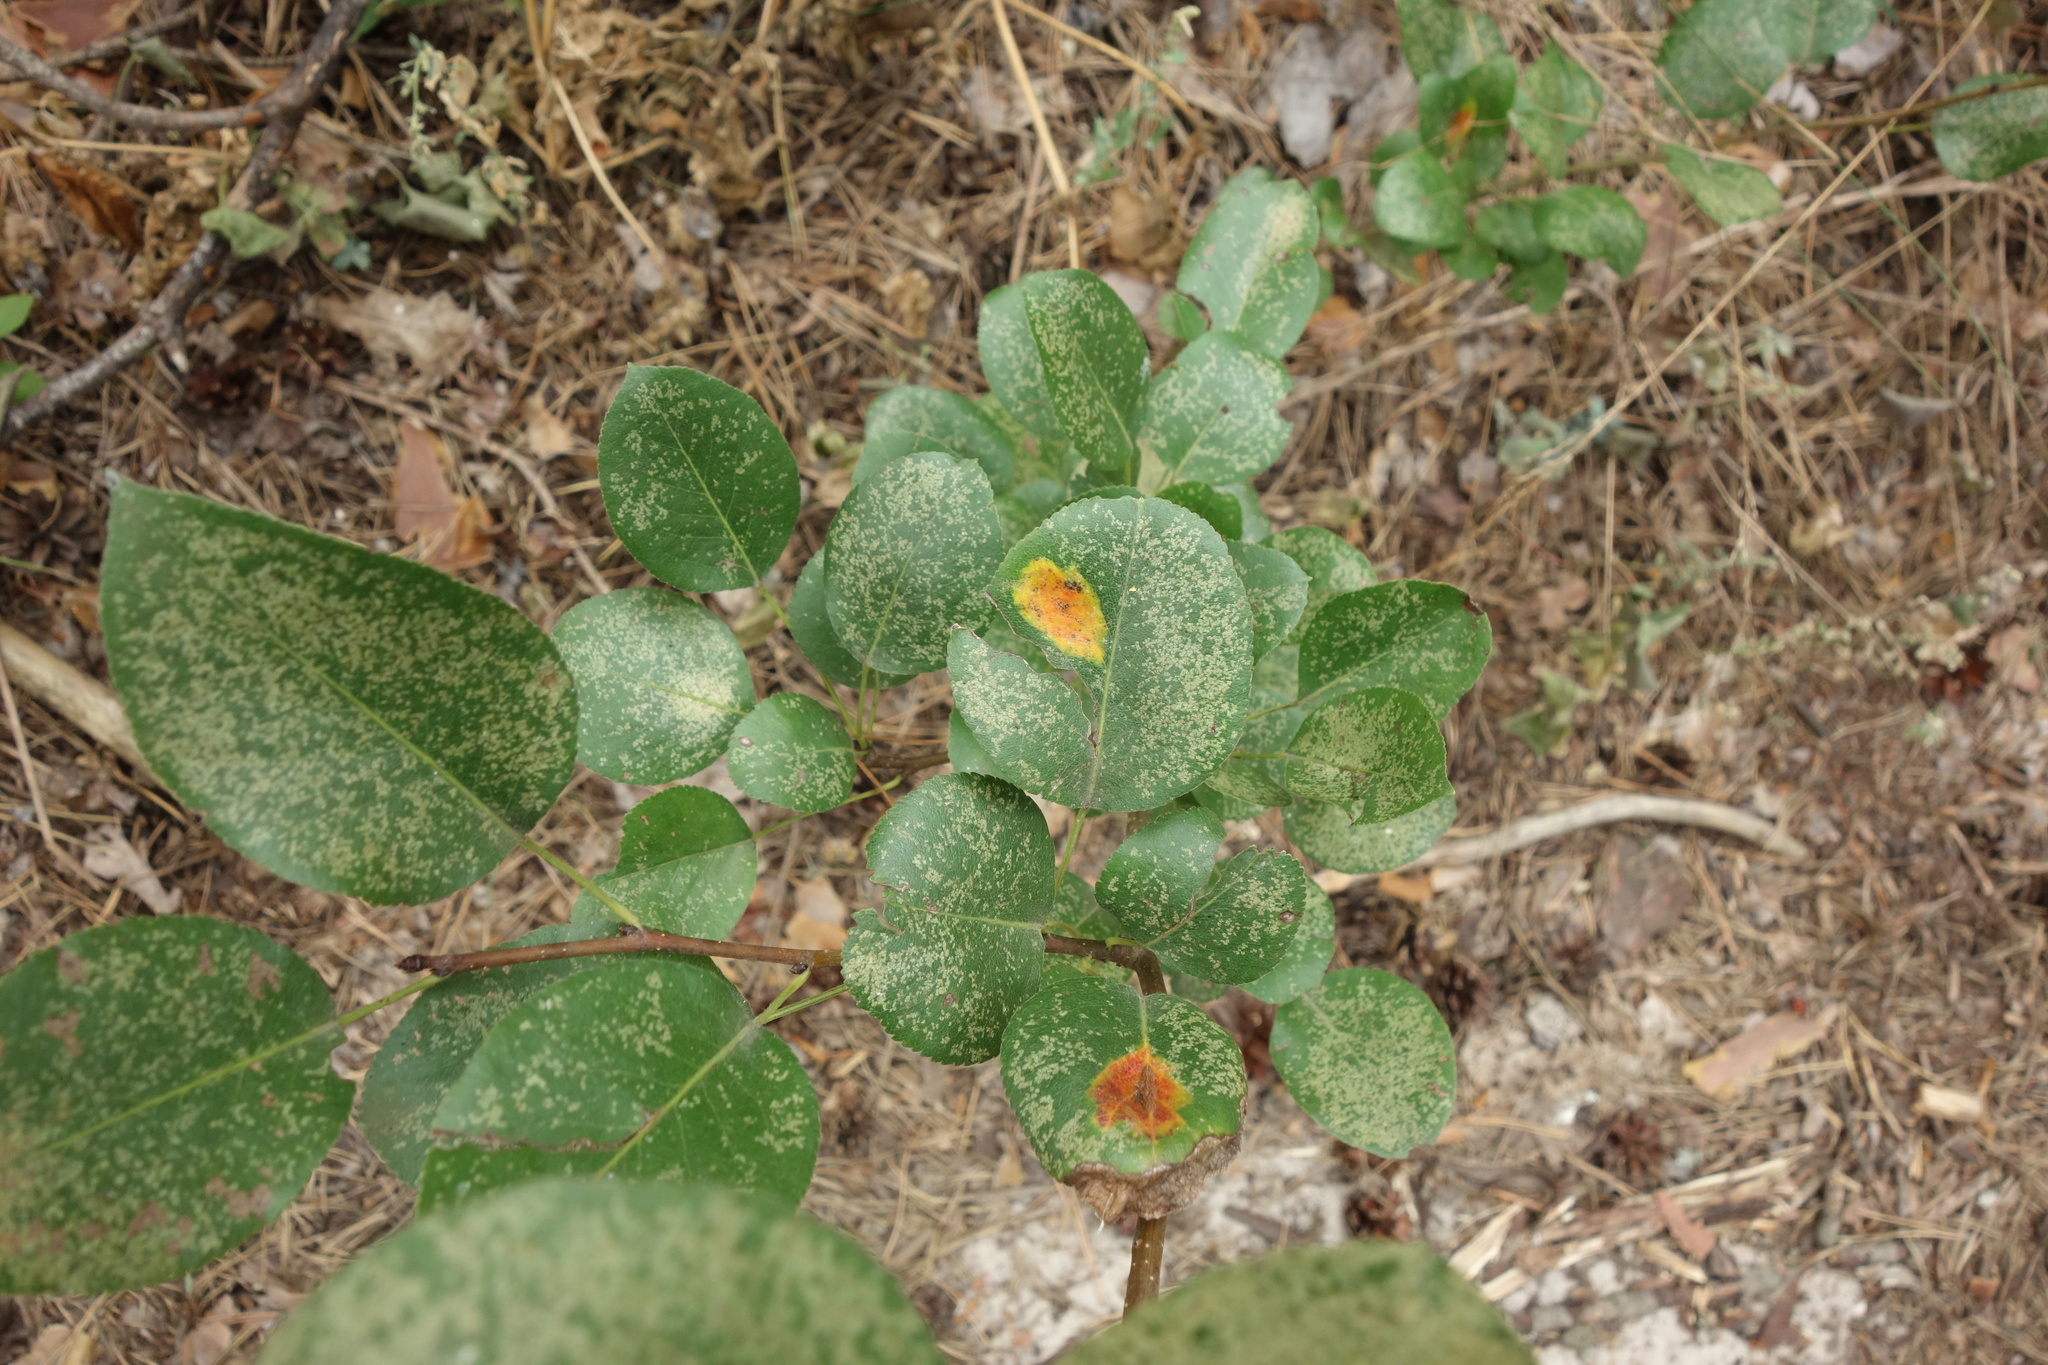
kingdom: Plantae
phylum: Tracheophyta
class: Magnoliopsida
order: Rosales
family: Rosaceae
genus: Pyrus
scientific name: Pyrus communis
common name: Pear
